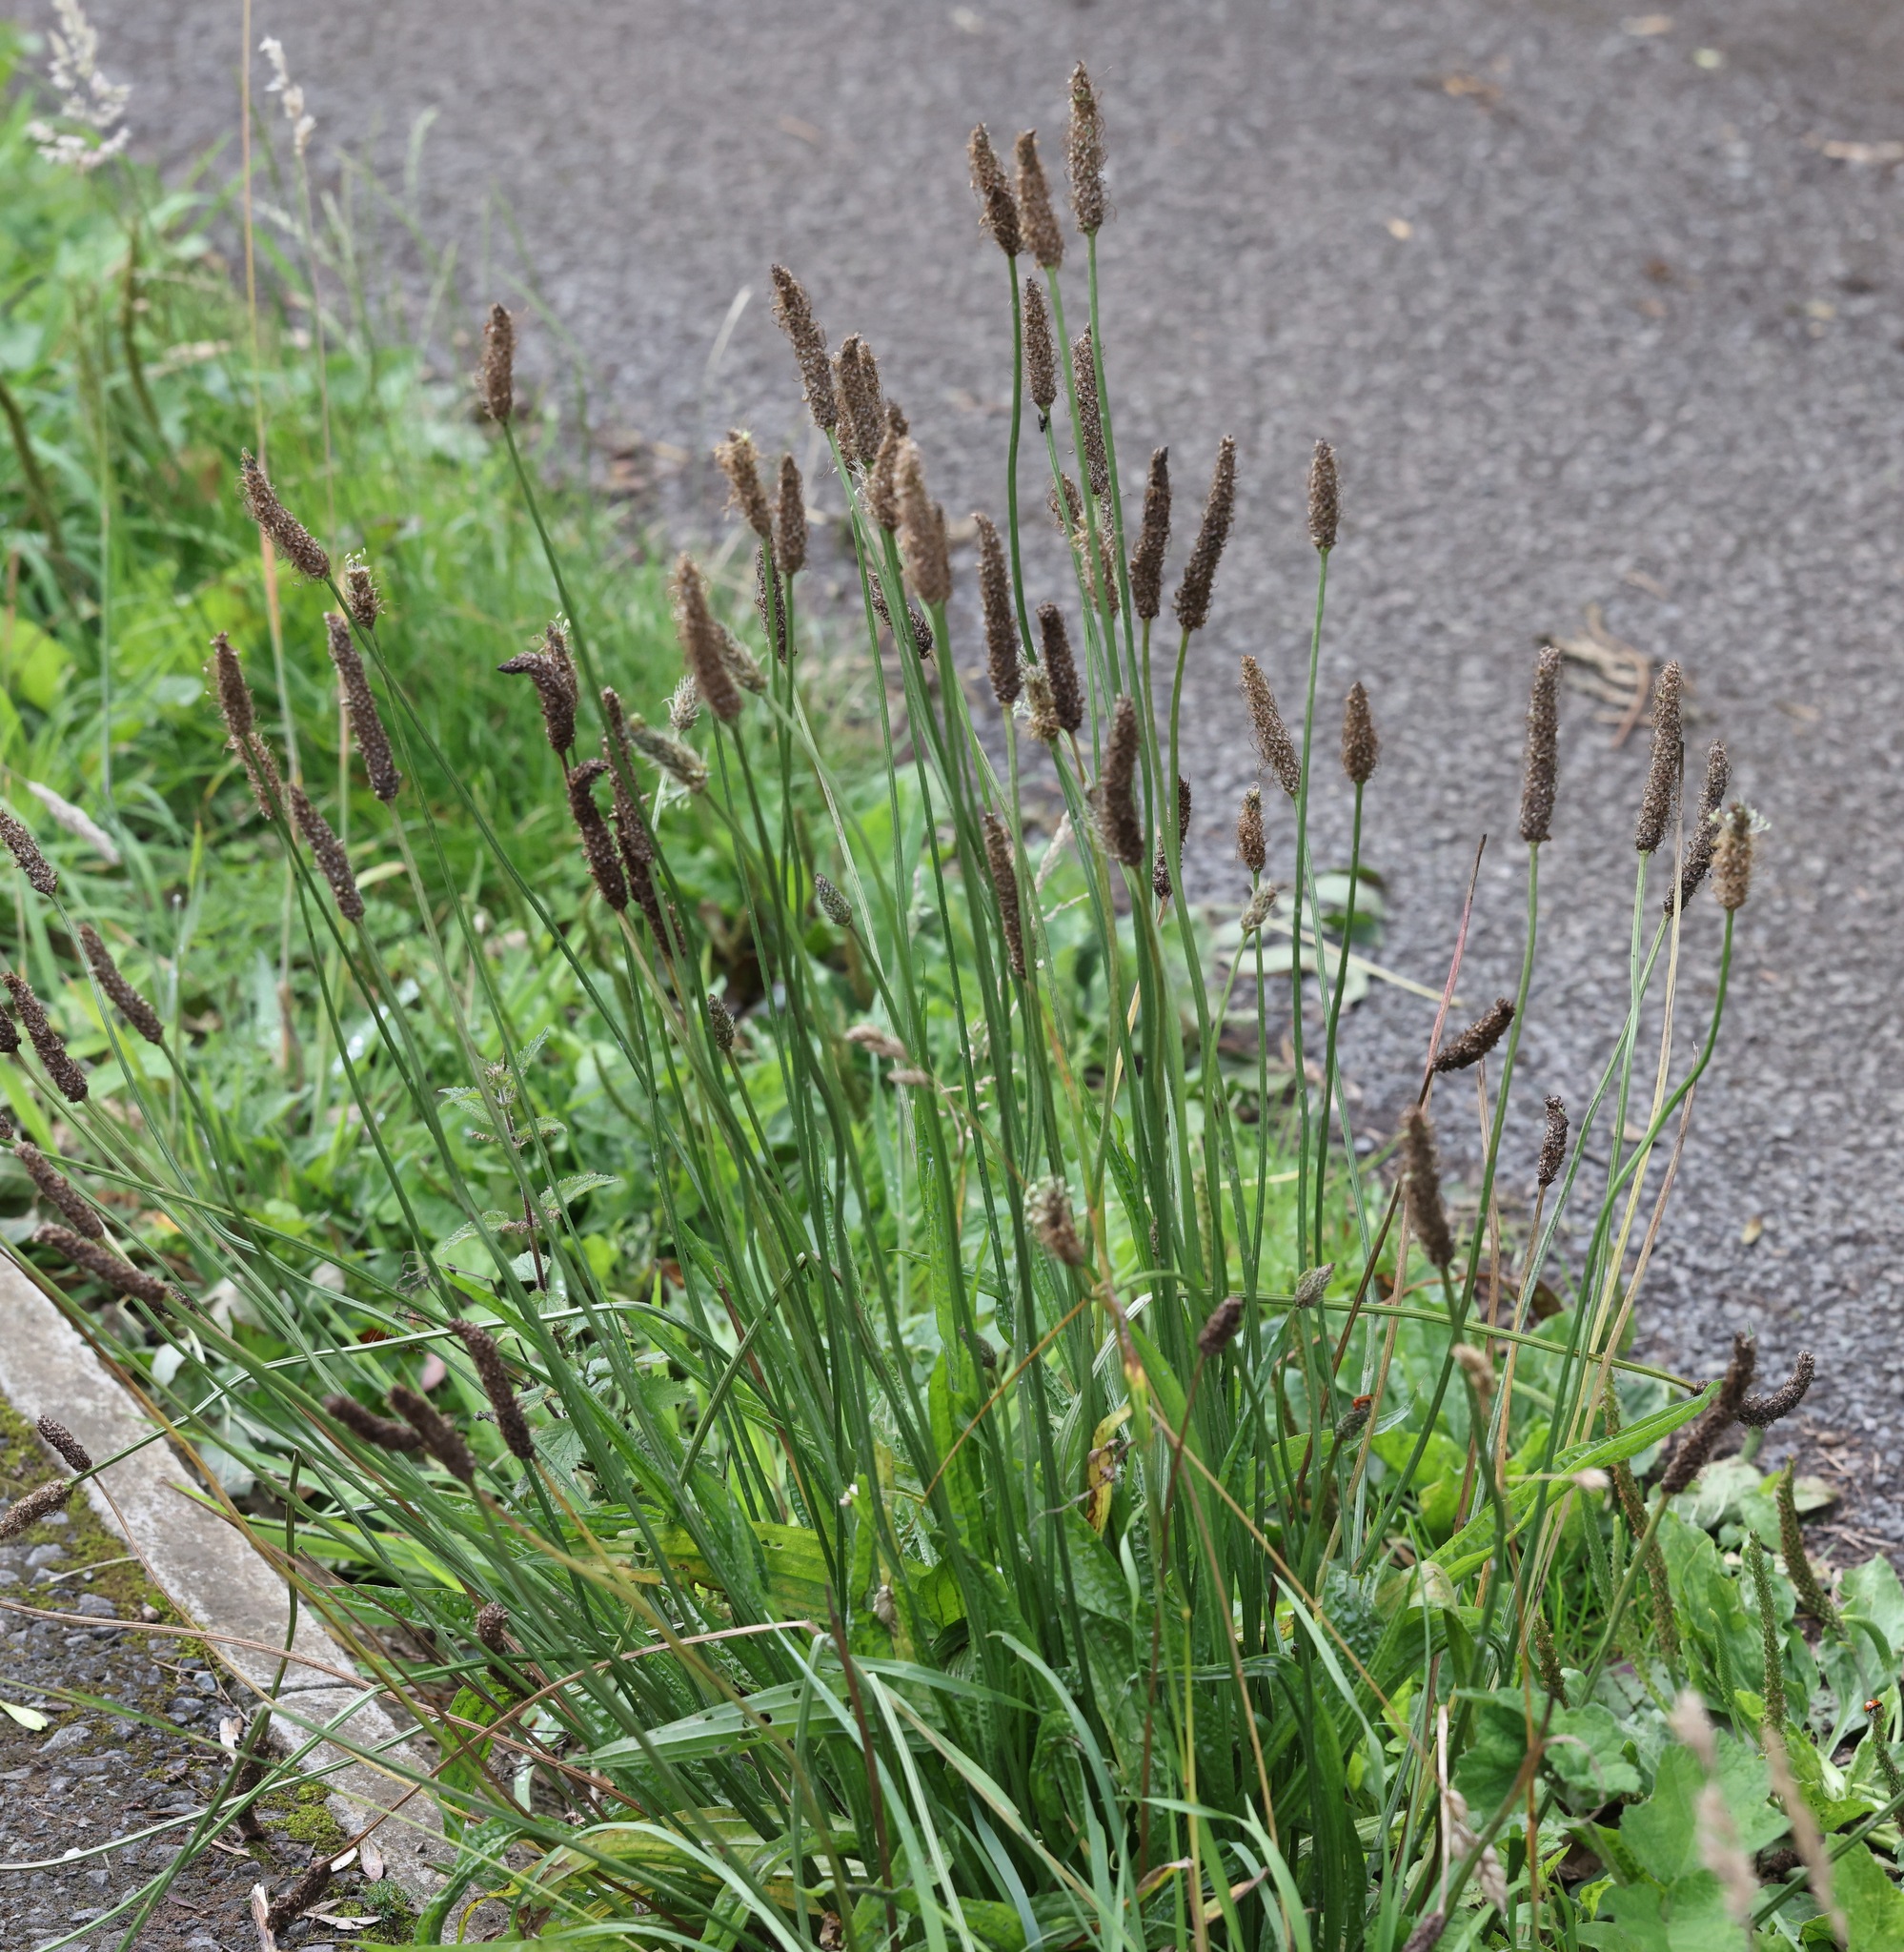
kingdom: Plantae
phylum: Tracheophyta
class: Magnoliopsida
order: Lamiales
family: Plantaginaceae
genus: Plantago
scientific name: Plantago lanceolata
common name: Ribwort plantain
